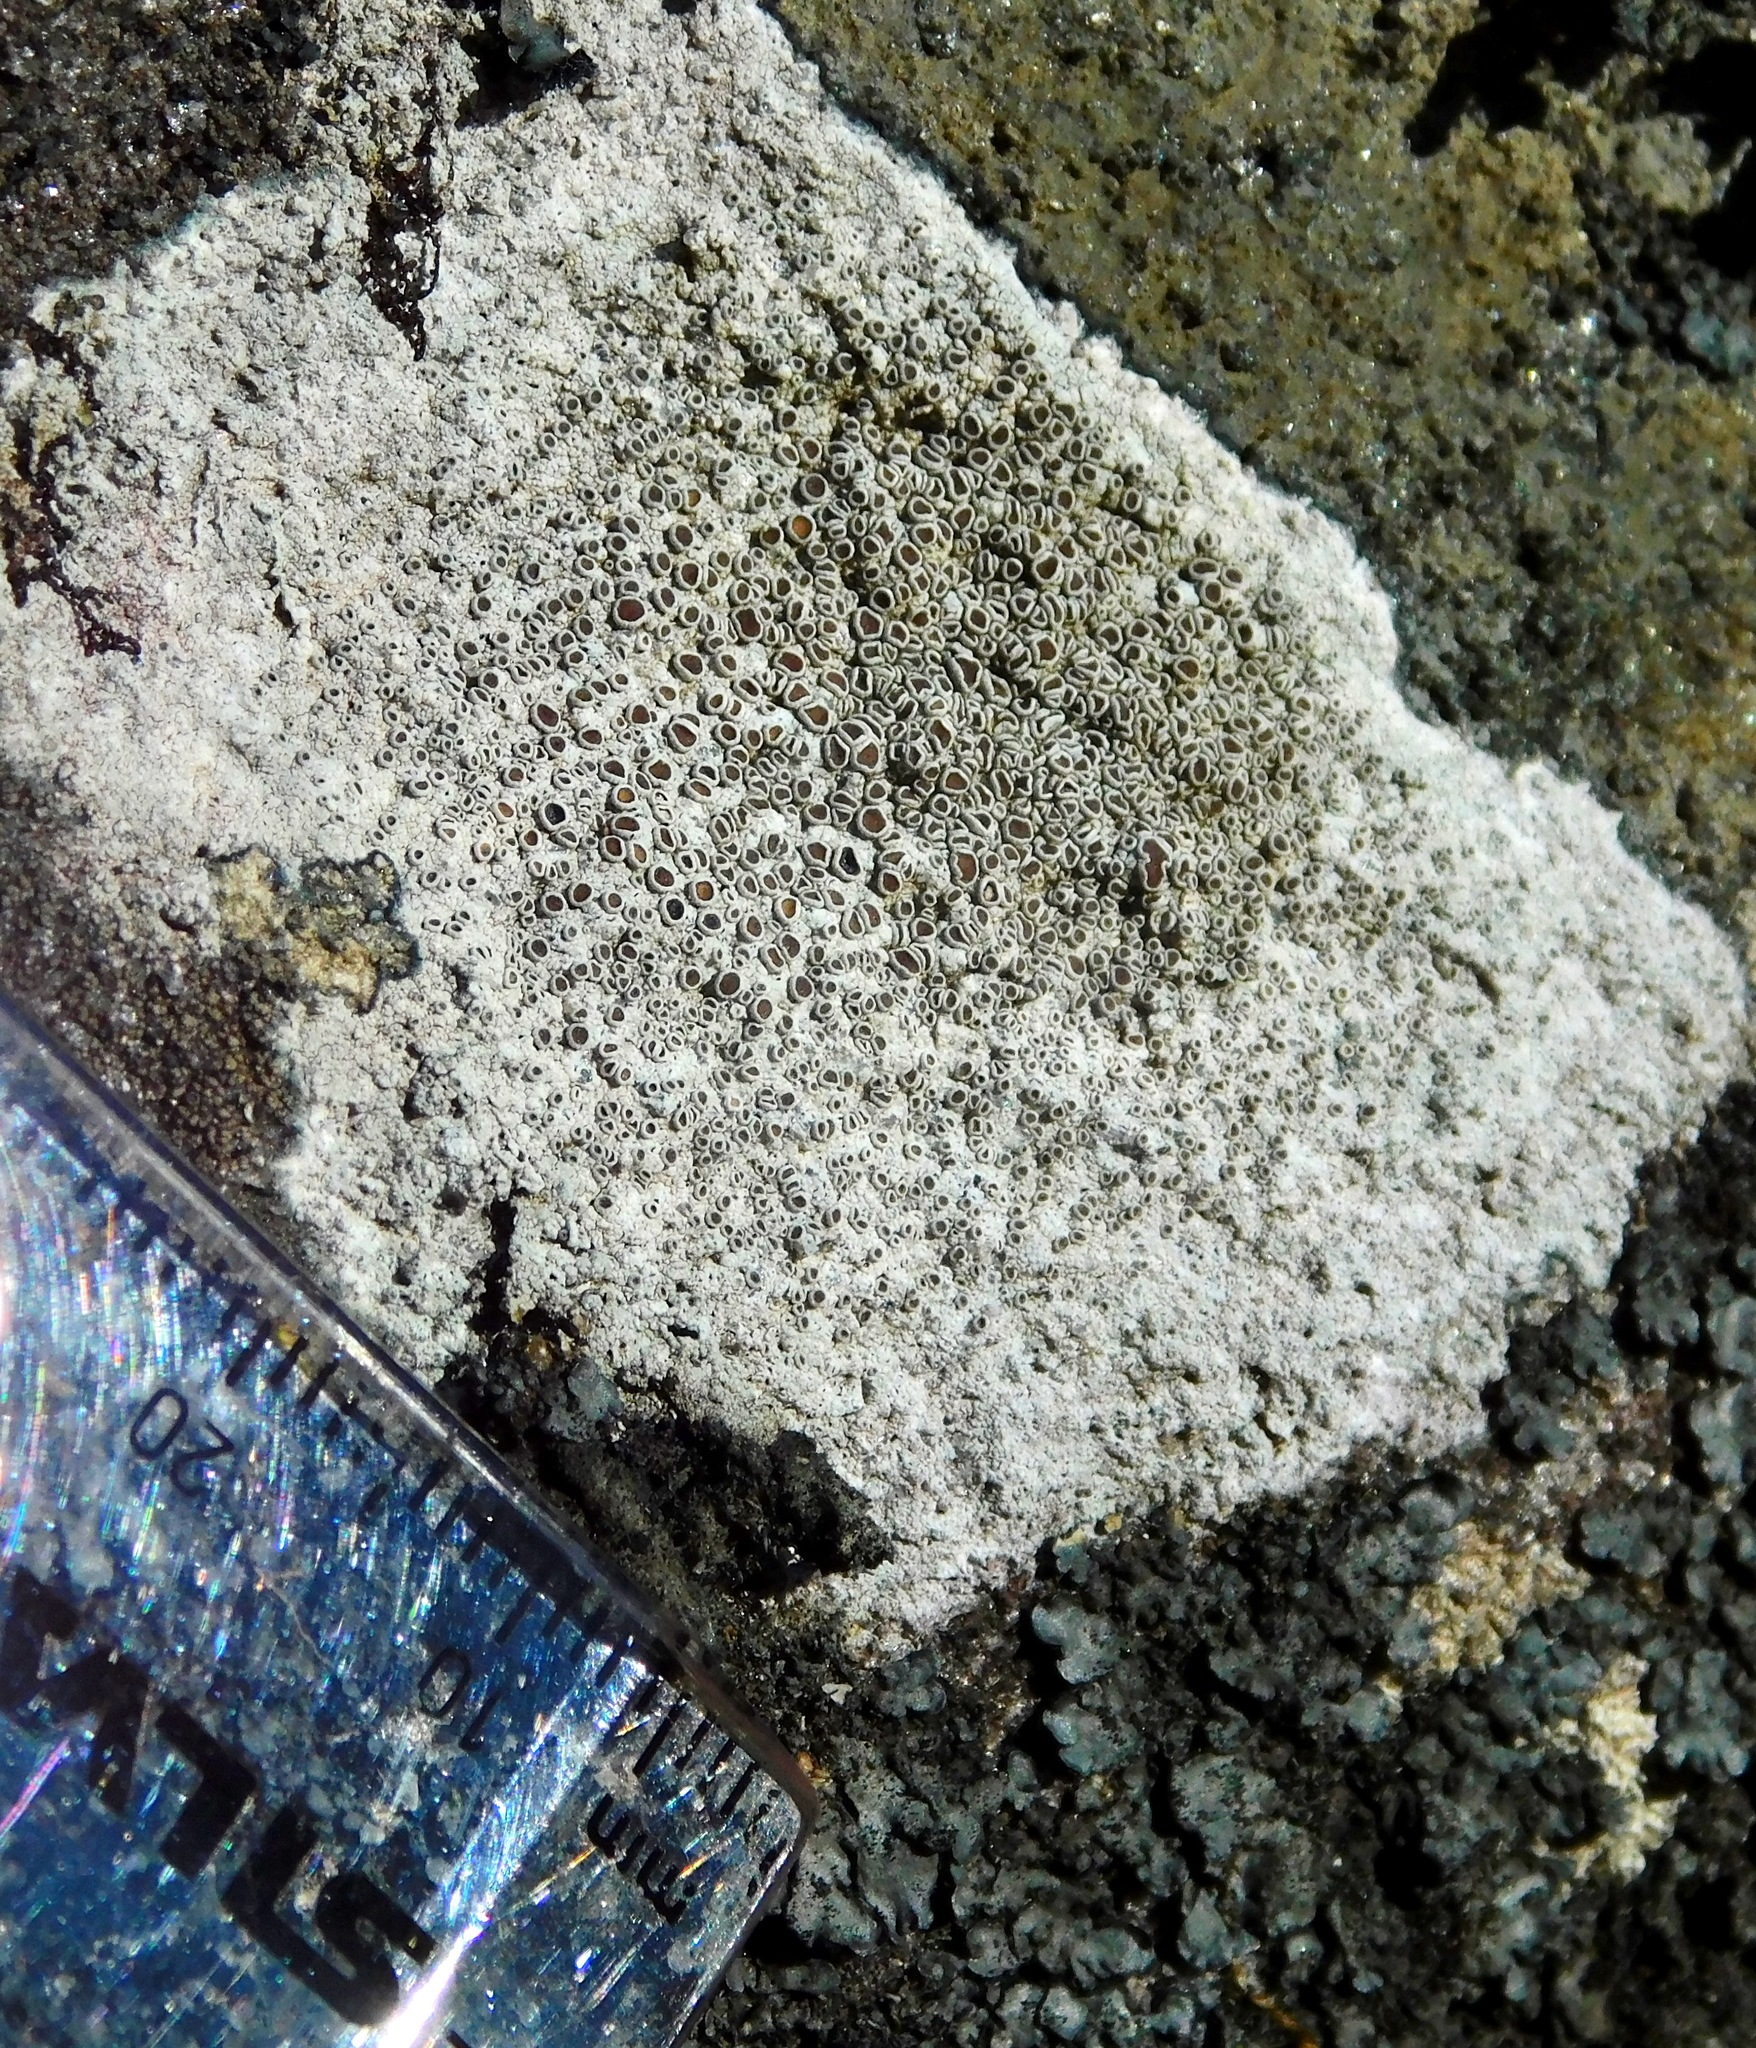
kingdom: Fungi
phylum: Ascomycota
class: Lecanoromycetes
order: Lecanorales
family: Lecanoraceae
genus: Lecanora
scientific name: Lecanora hybocarpa
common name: Bumpy rim-lichen
